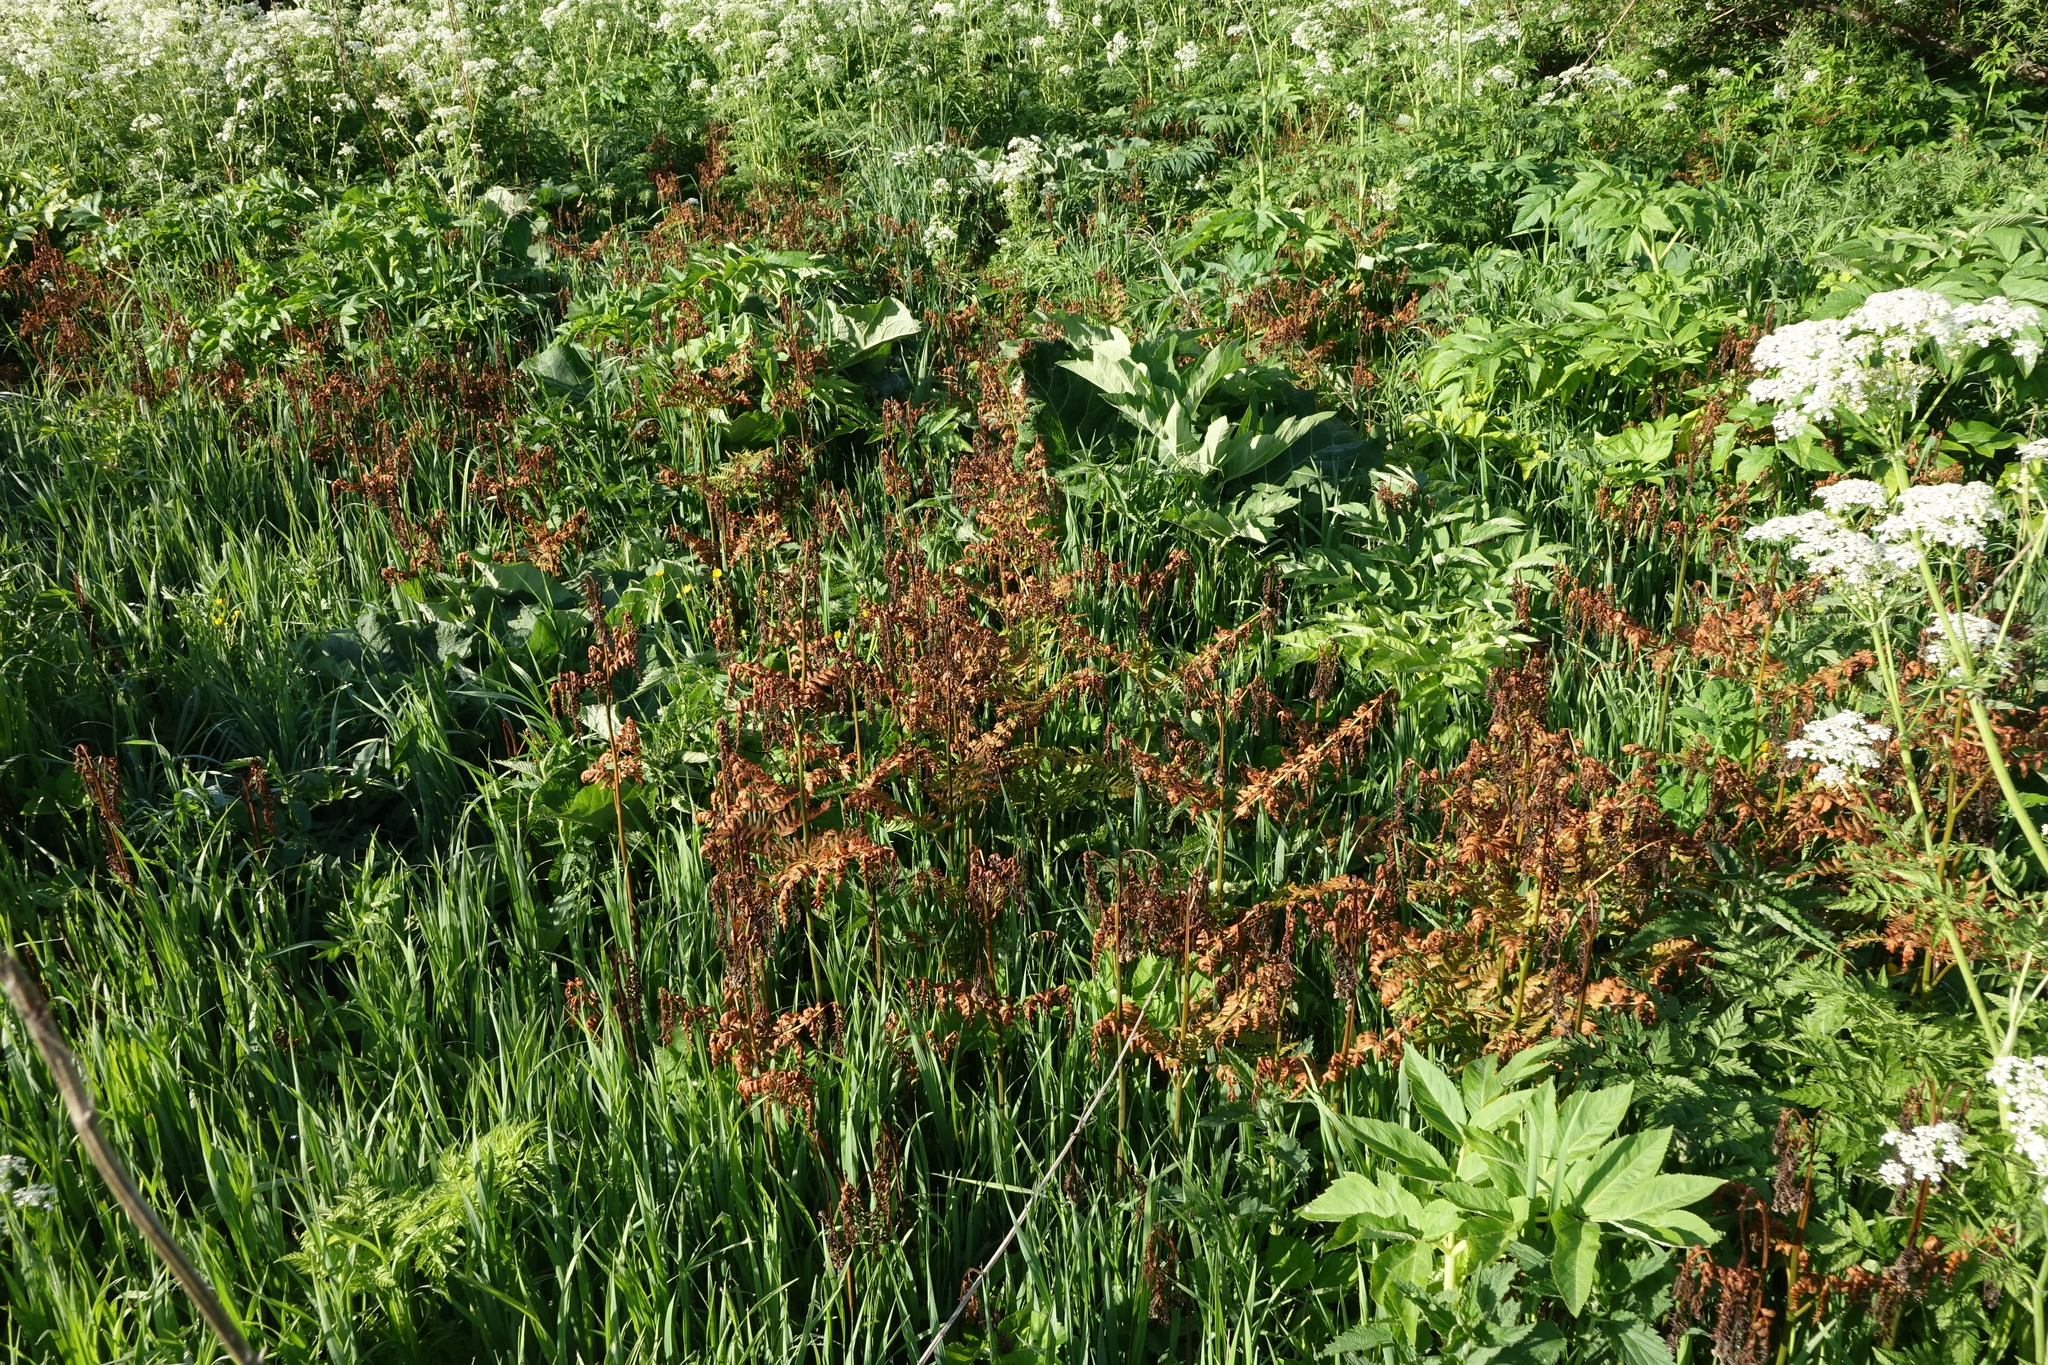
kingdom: Plantae
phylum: Tracheophyta
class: Polypodiopsida
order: Polypodiales
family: Dennstaedtiaceae
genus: Pteridium
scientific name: Pteridium aquilinum
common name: Bracken
